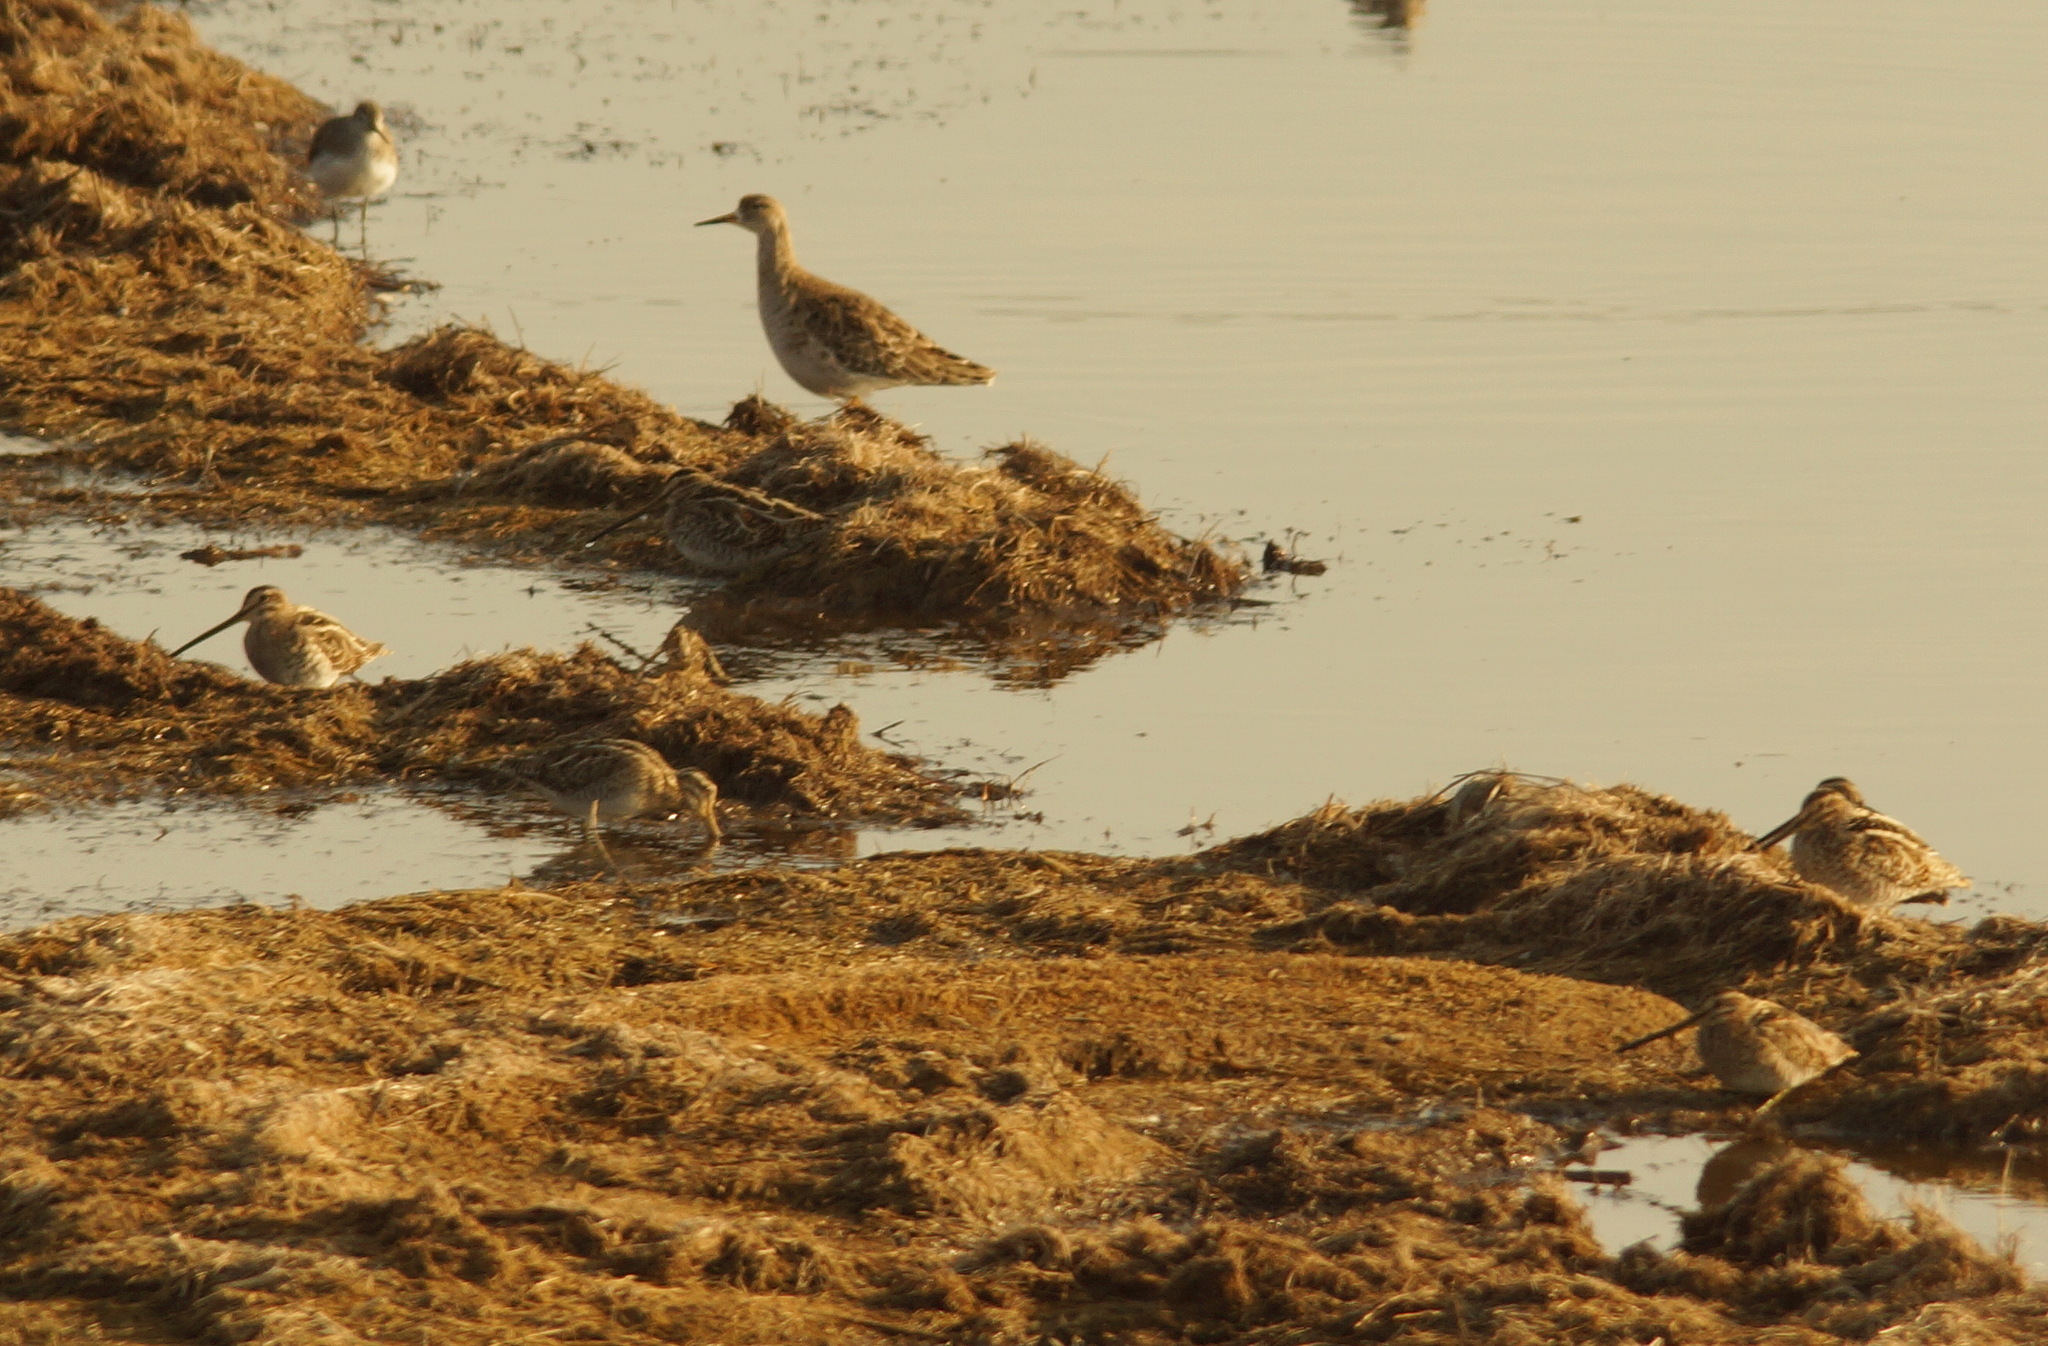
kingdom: Animalia
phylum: Chordata
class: Aves
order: Charadriiformes
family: Scolopacidae
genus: Calidris
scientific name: Calidris pugnax
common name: Ruff
